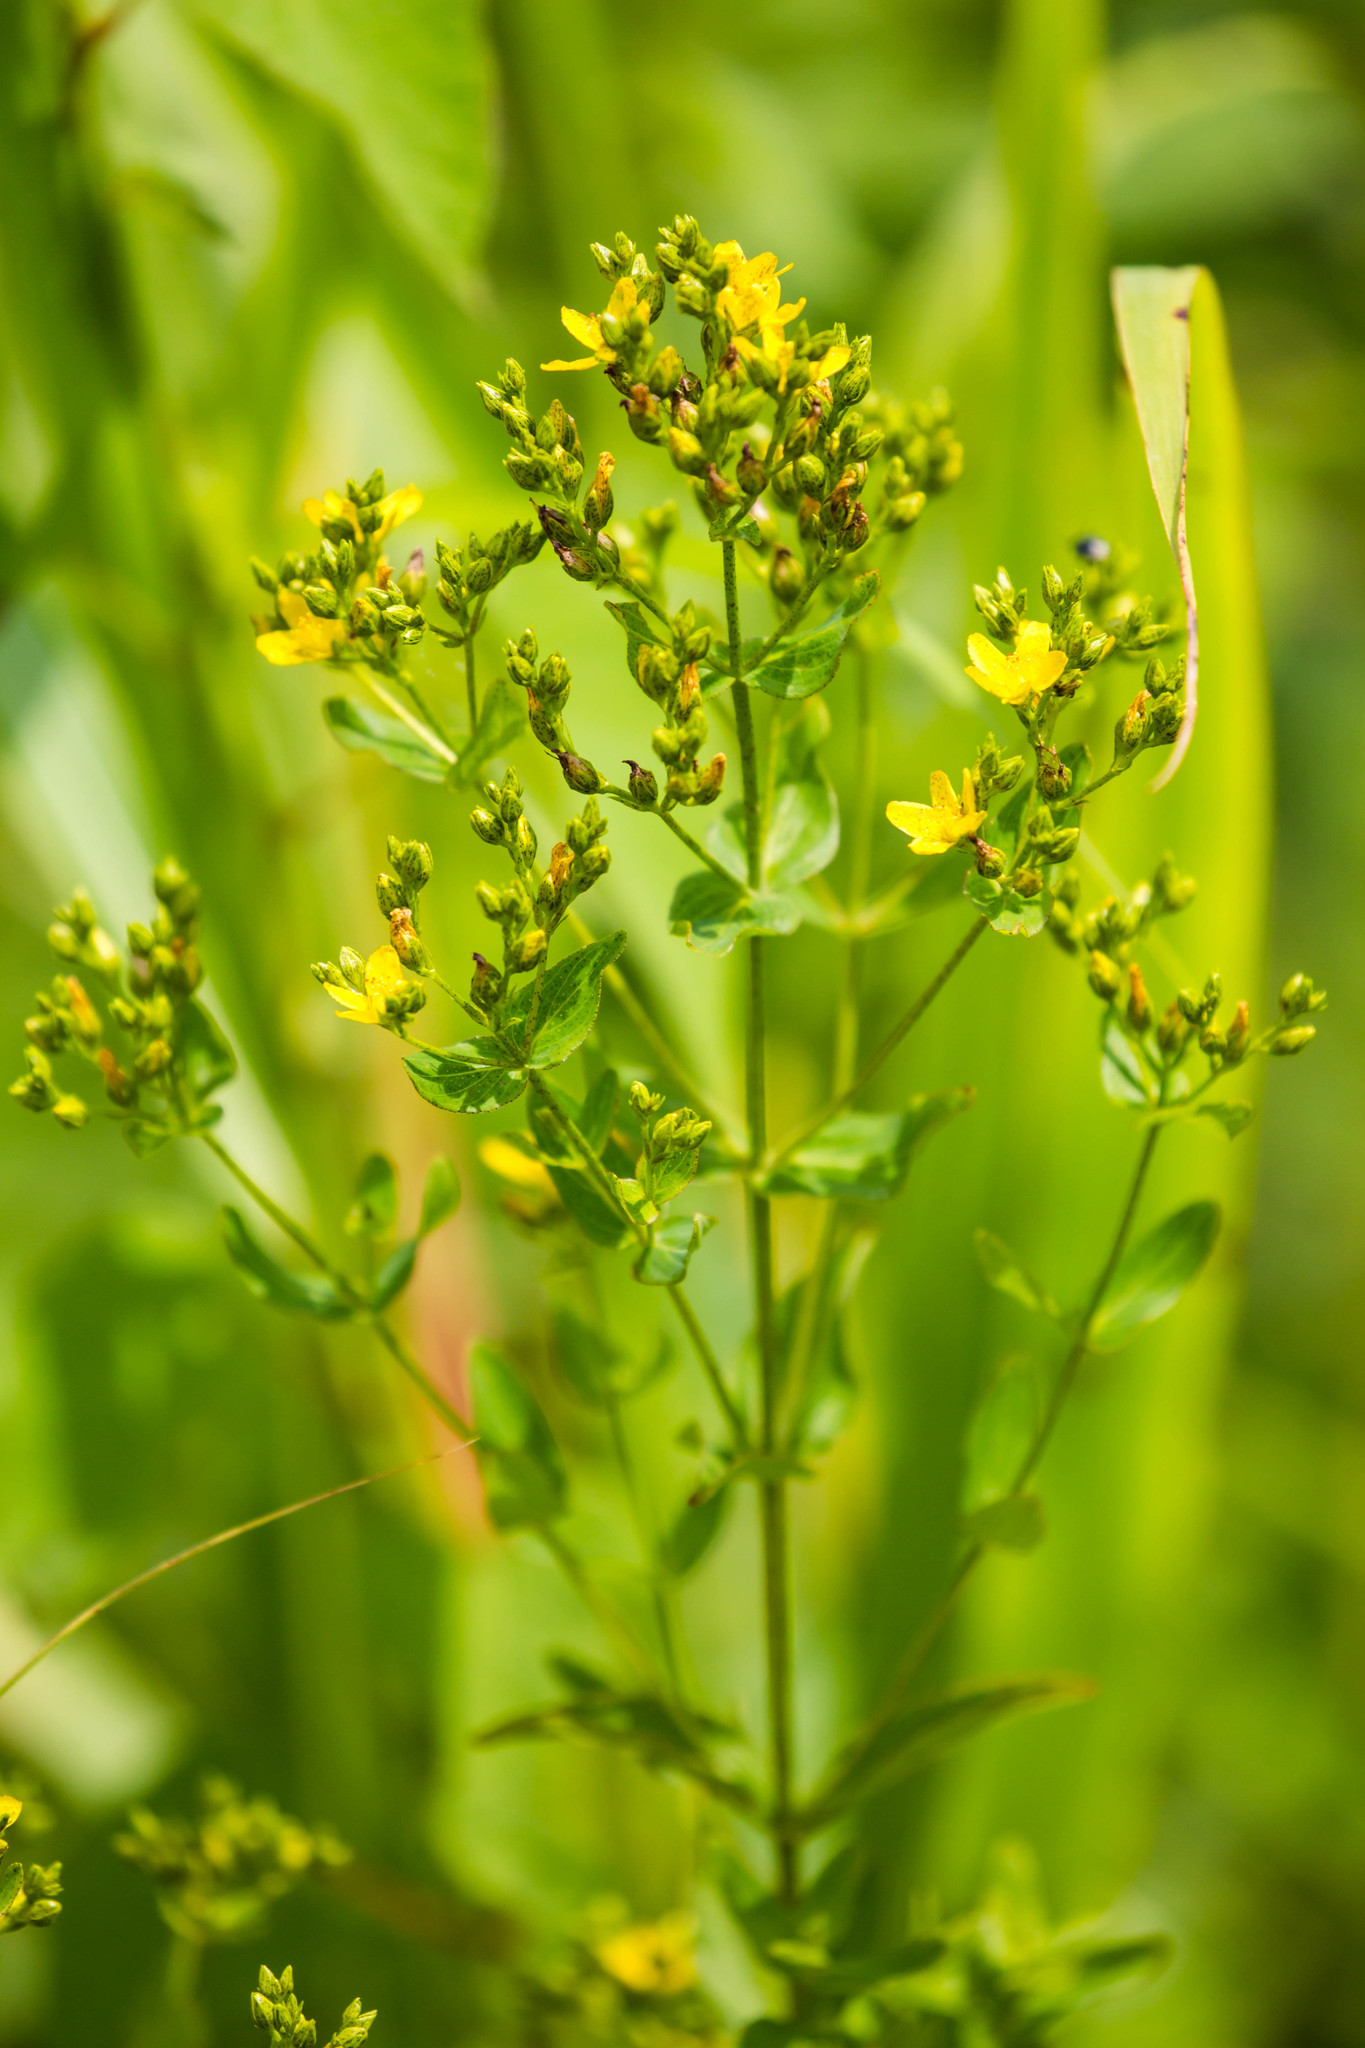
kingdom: Plantae
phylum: Tracheophyta
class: Magnoliopsida
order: Malpighiales
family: Hypericaceae
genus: Hypericum
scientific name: Hypericum punctatum
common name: Spotted st. john's-wort
